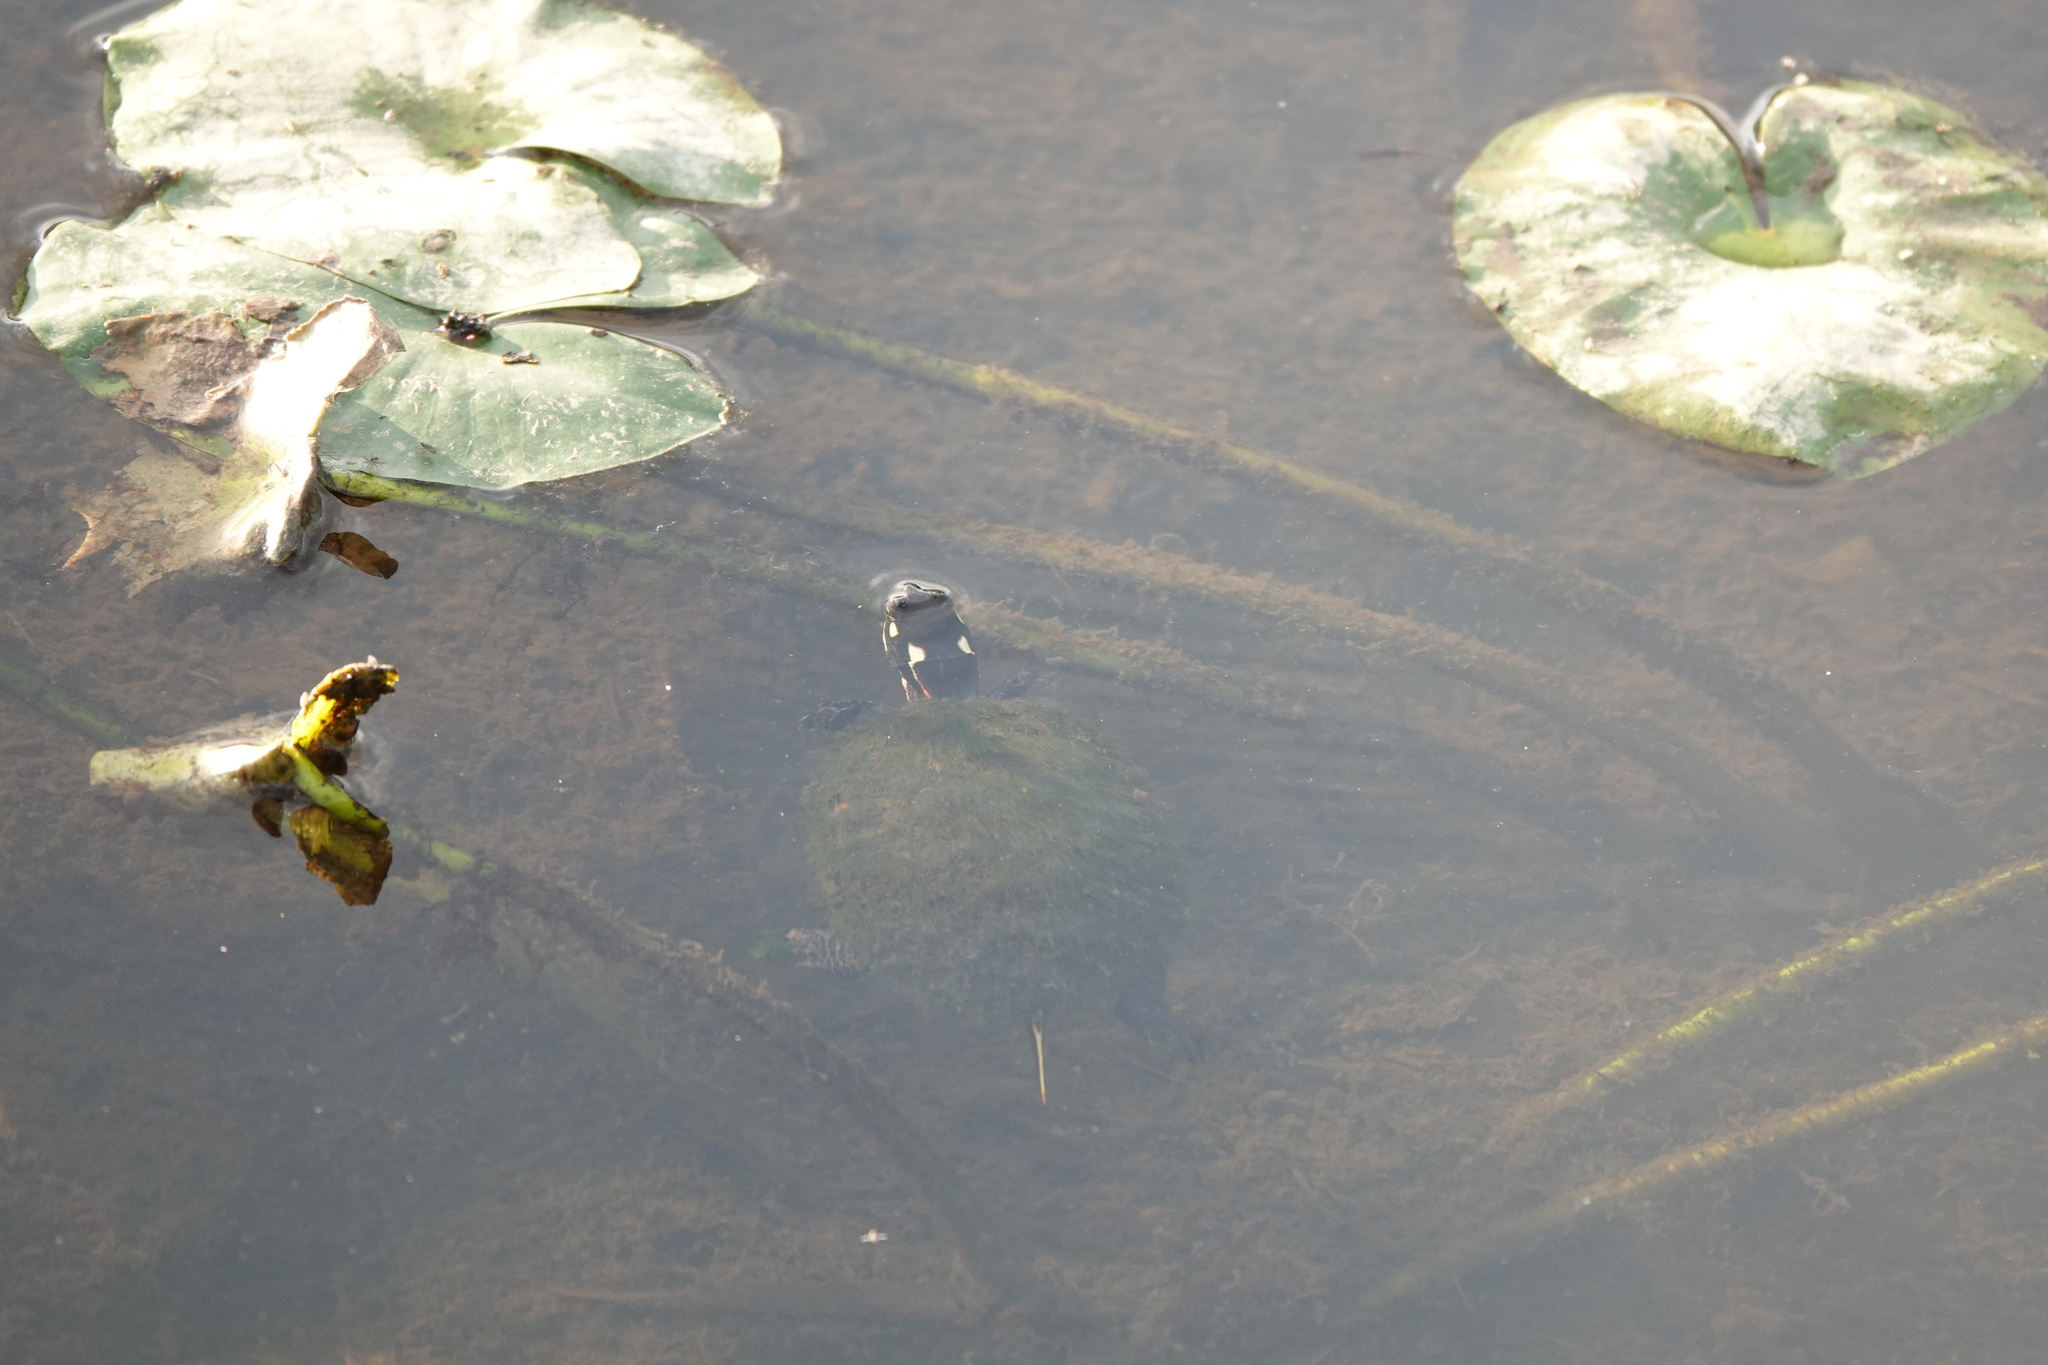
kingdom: Animalia
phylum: Chordata
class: Testudines
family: Emydidae
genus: Chrysemys
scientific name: Chrysemys picta
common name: Painted turtle
